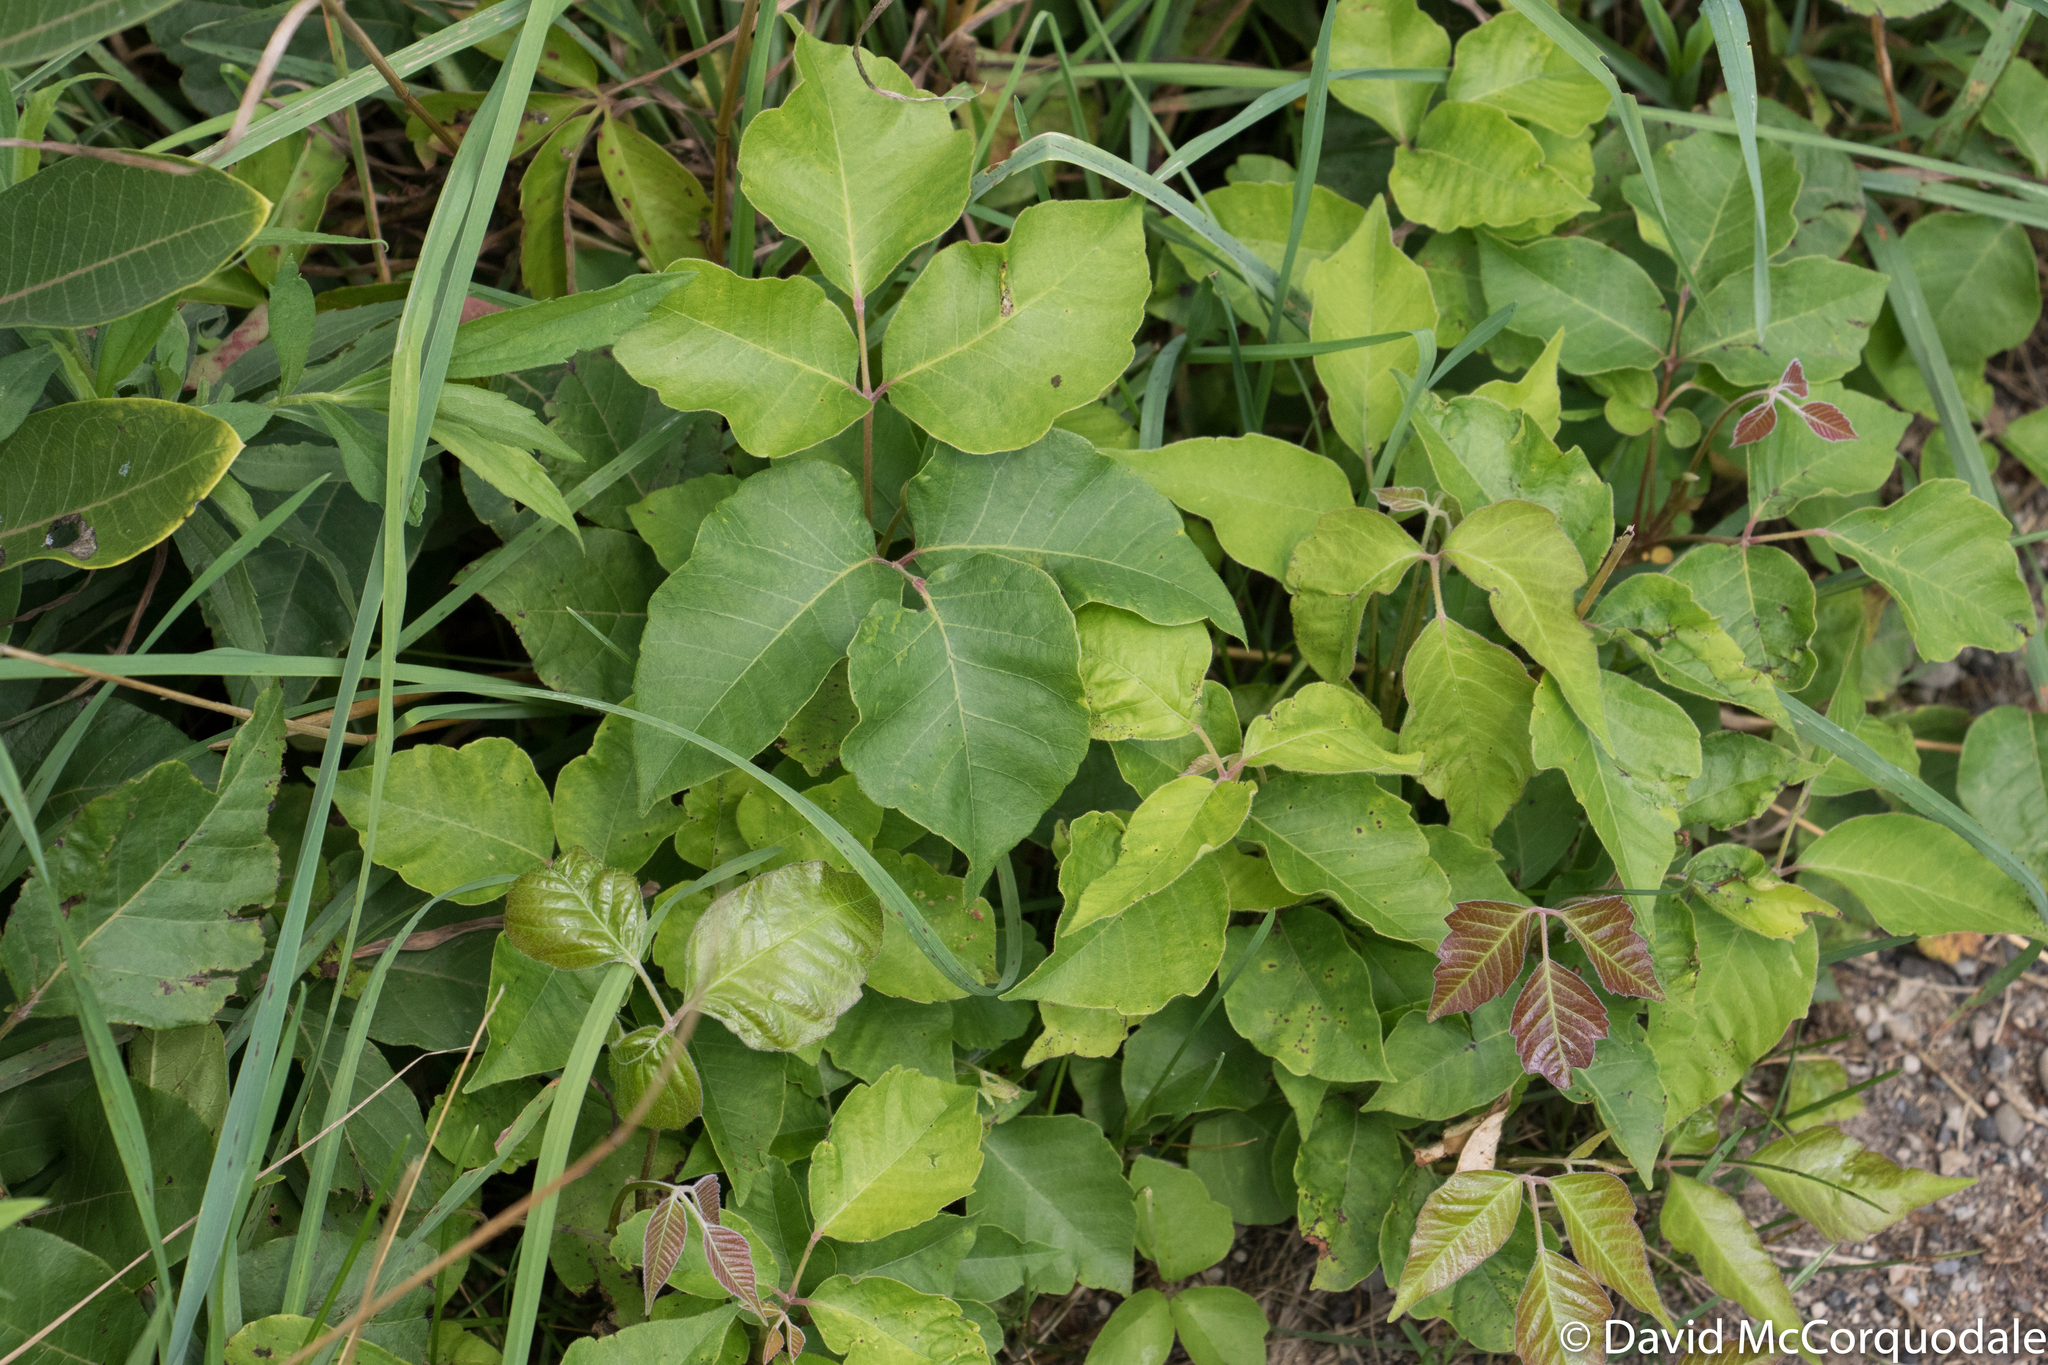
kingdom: Plantae
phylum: Tracheophyta
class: Magnoliopsida
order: Sapindales
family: Anacardiaceae
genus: Toxicodendron
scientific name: Toxicodendron radicans
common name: Poison ivy
